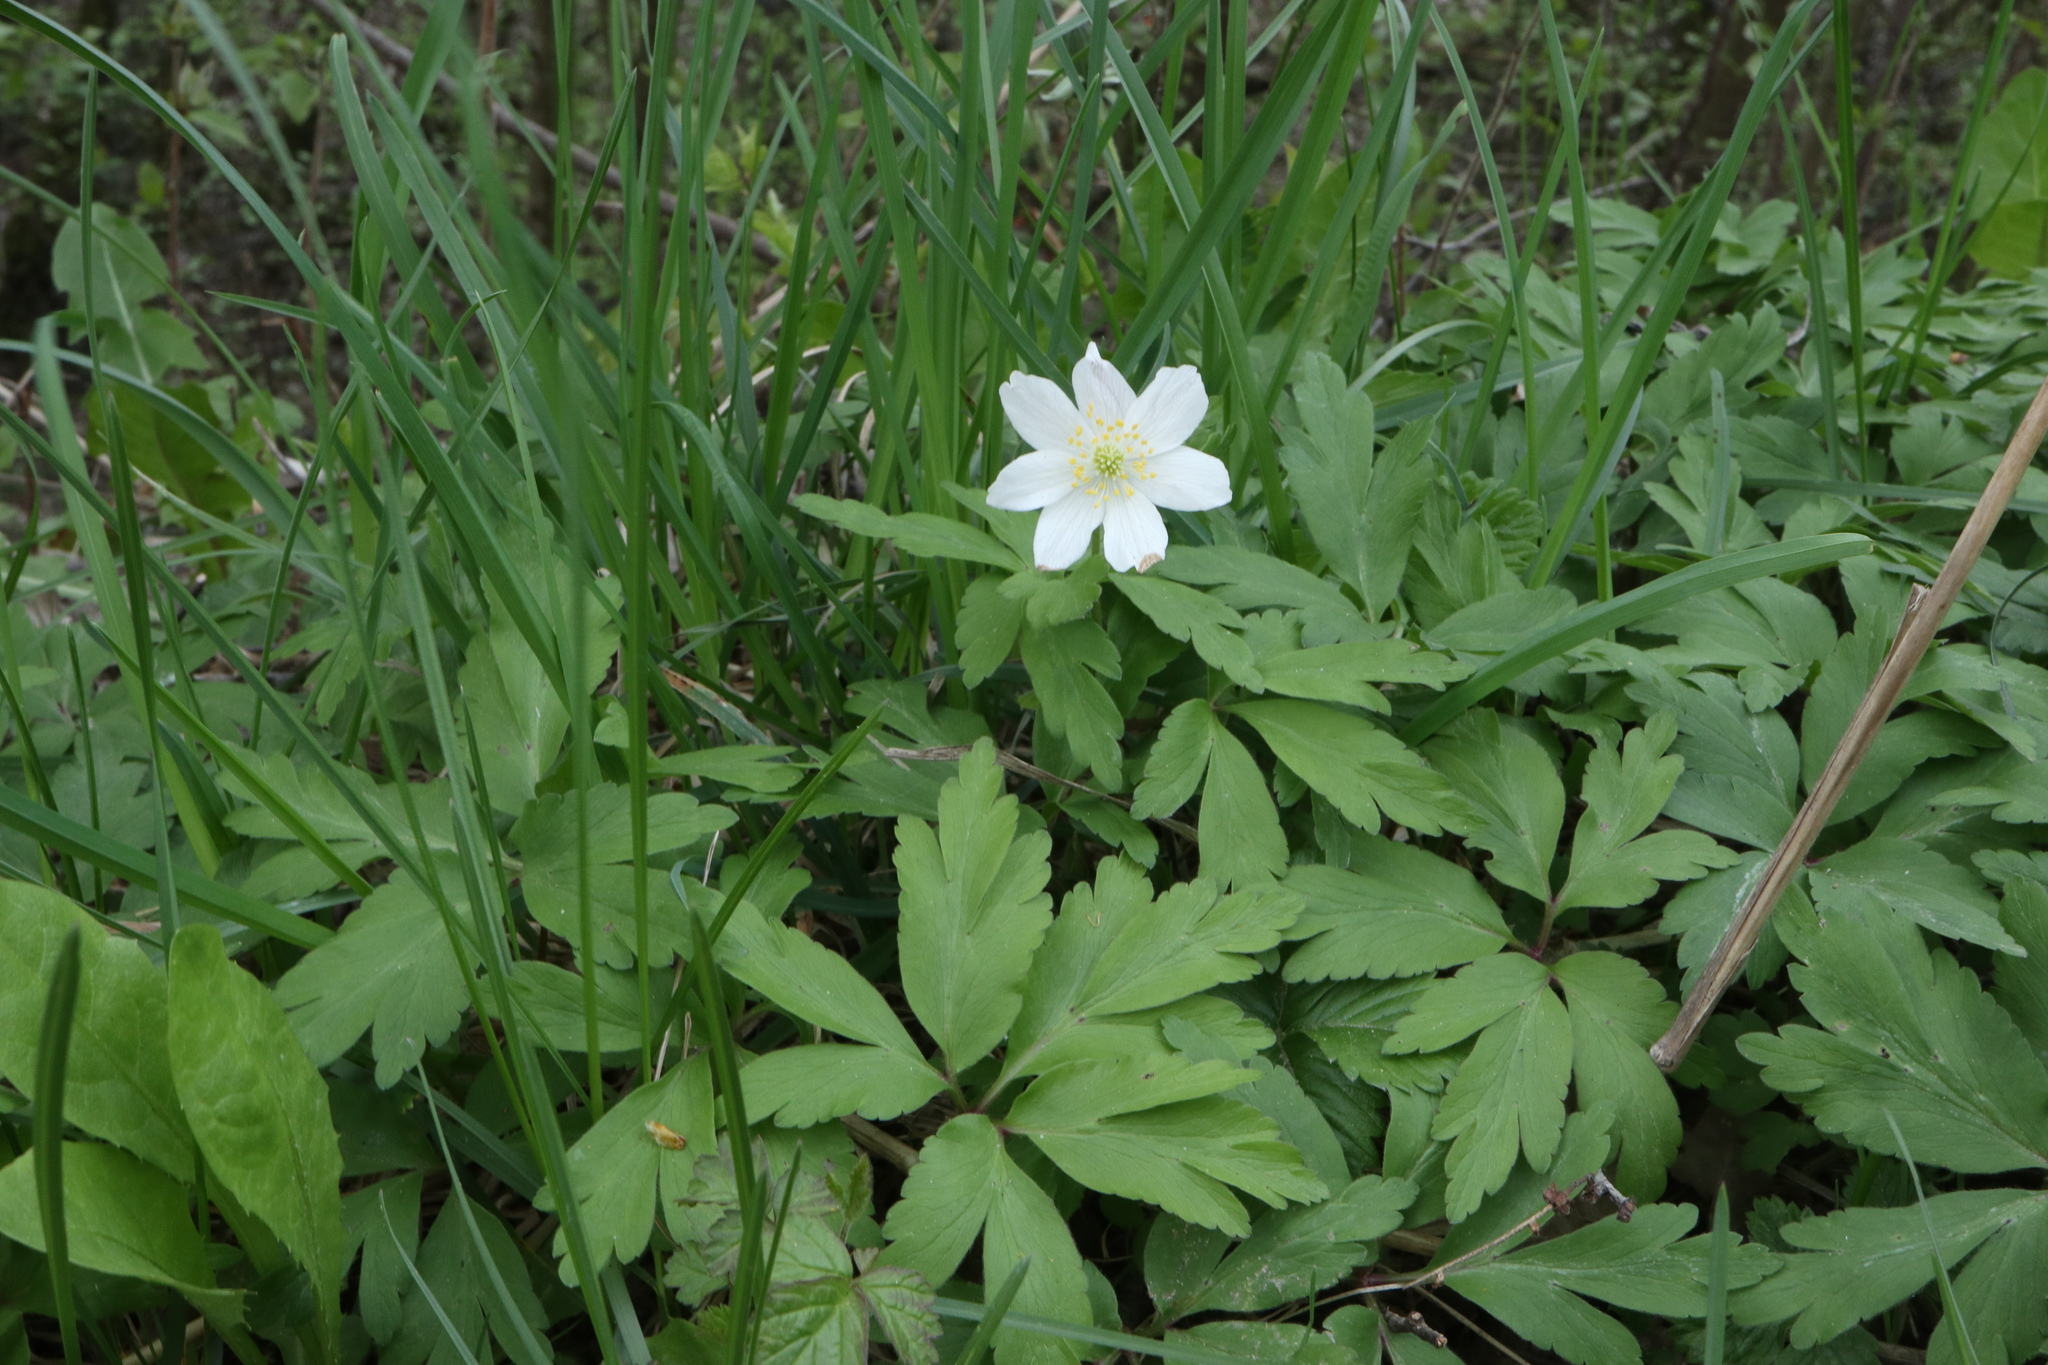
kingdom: Plantae
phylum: Tracheophyta
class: Magnoliopsida
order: Ranunculales
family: Ranunculaceae
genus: Anemone
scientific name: Anemone nemorosa
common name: Wood anemone
